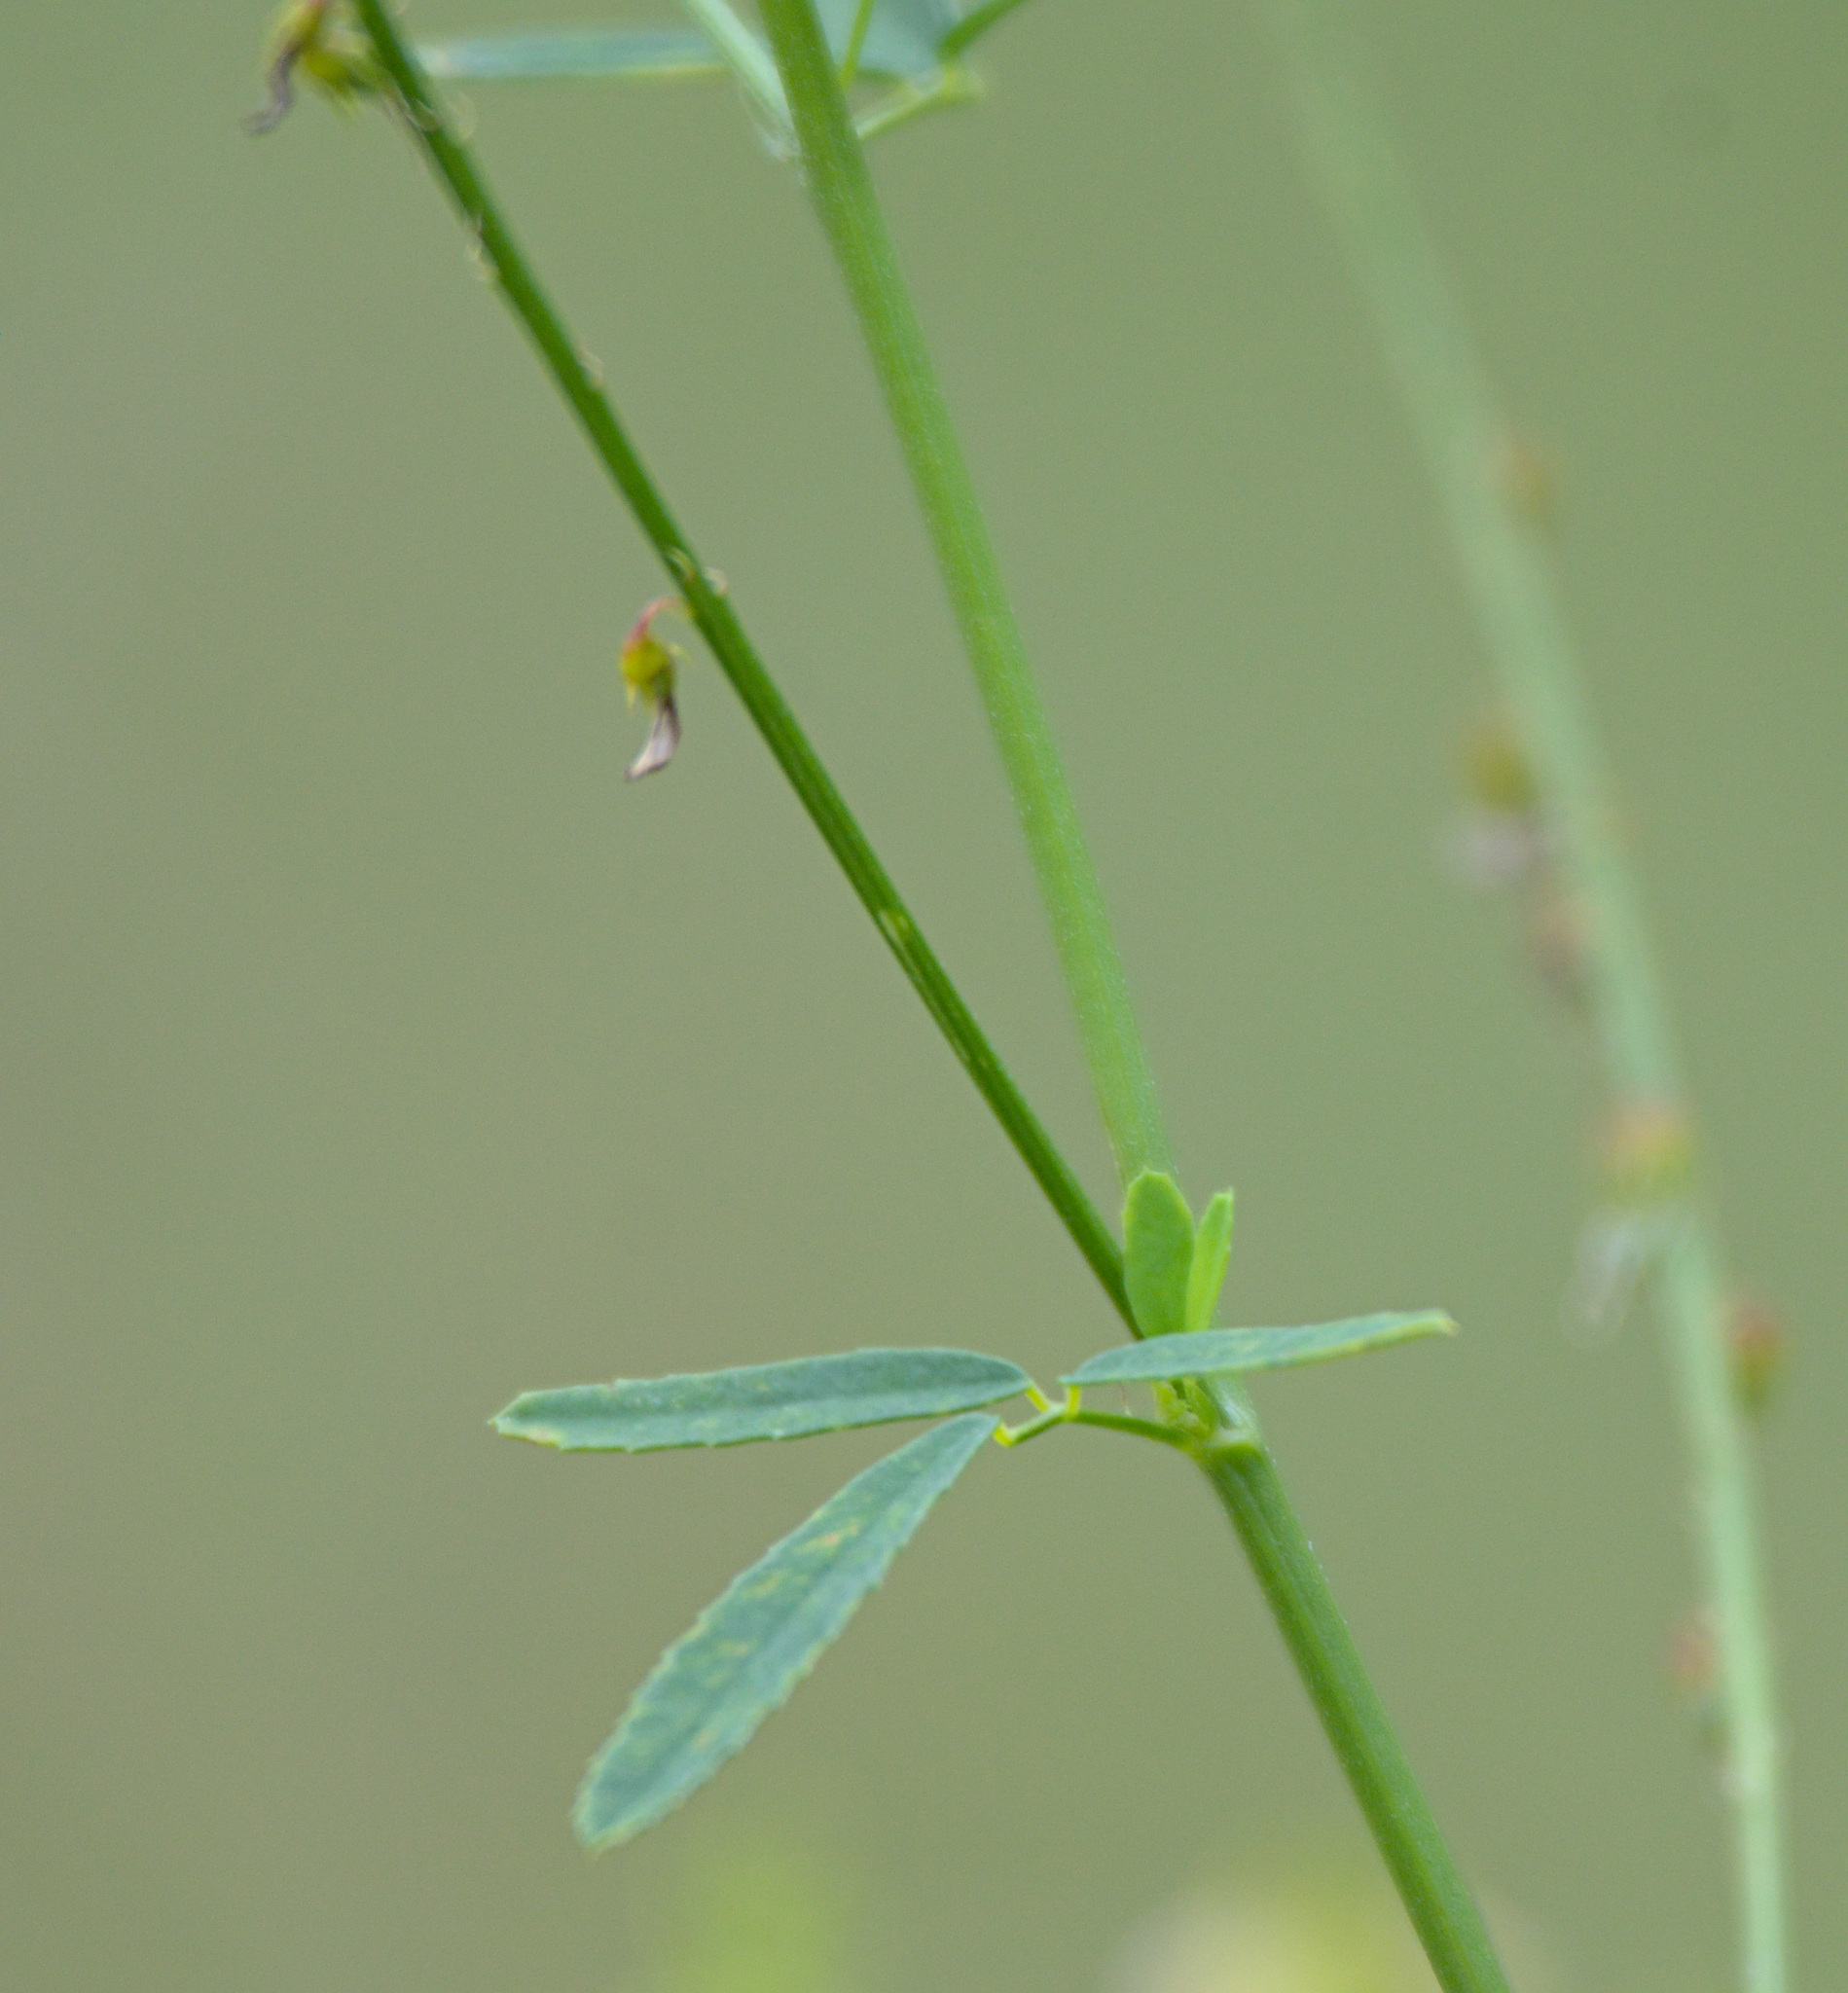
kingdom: Plantae
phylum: Tracheophyta
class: Magnoliopsida
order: Fabales
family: Fabaceae
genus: Melilotus
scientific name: Melilotus officinalis
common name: Sweetclover
